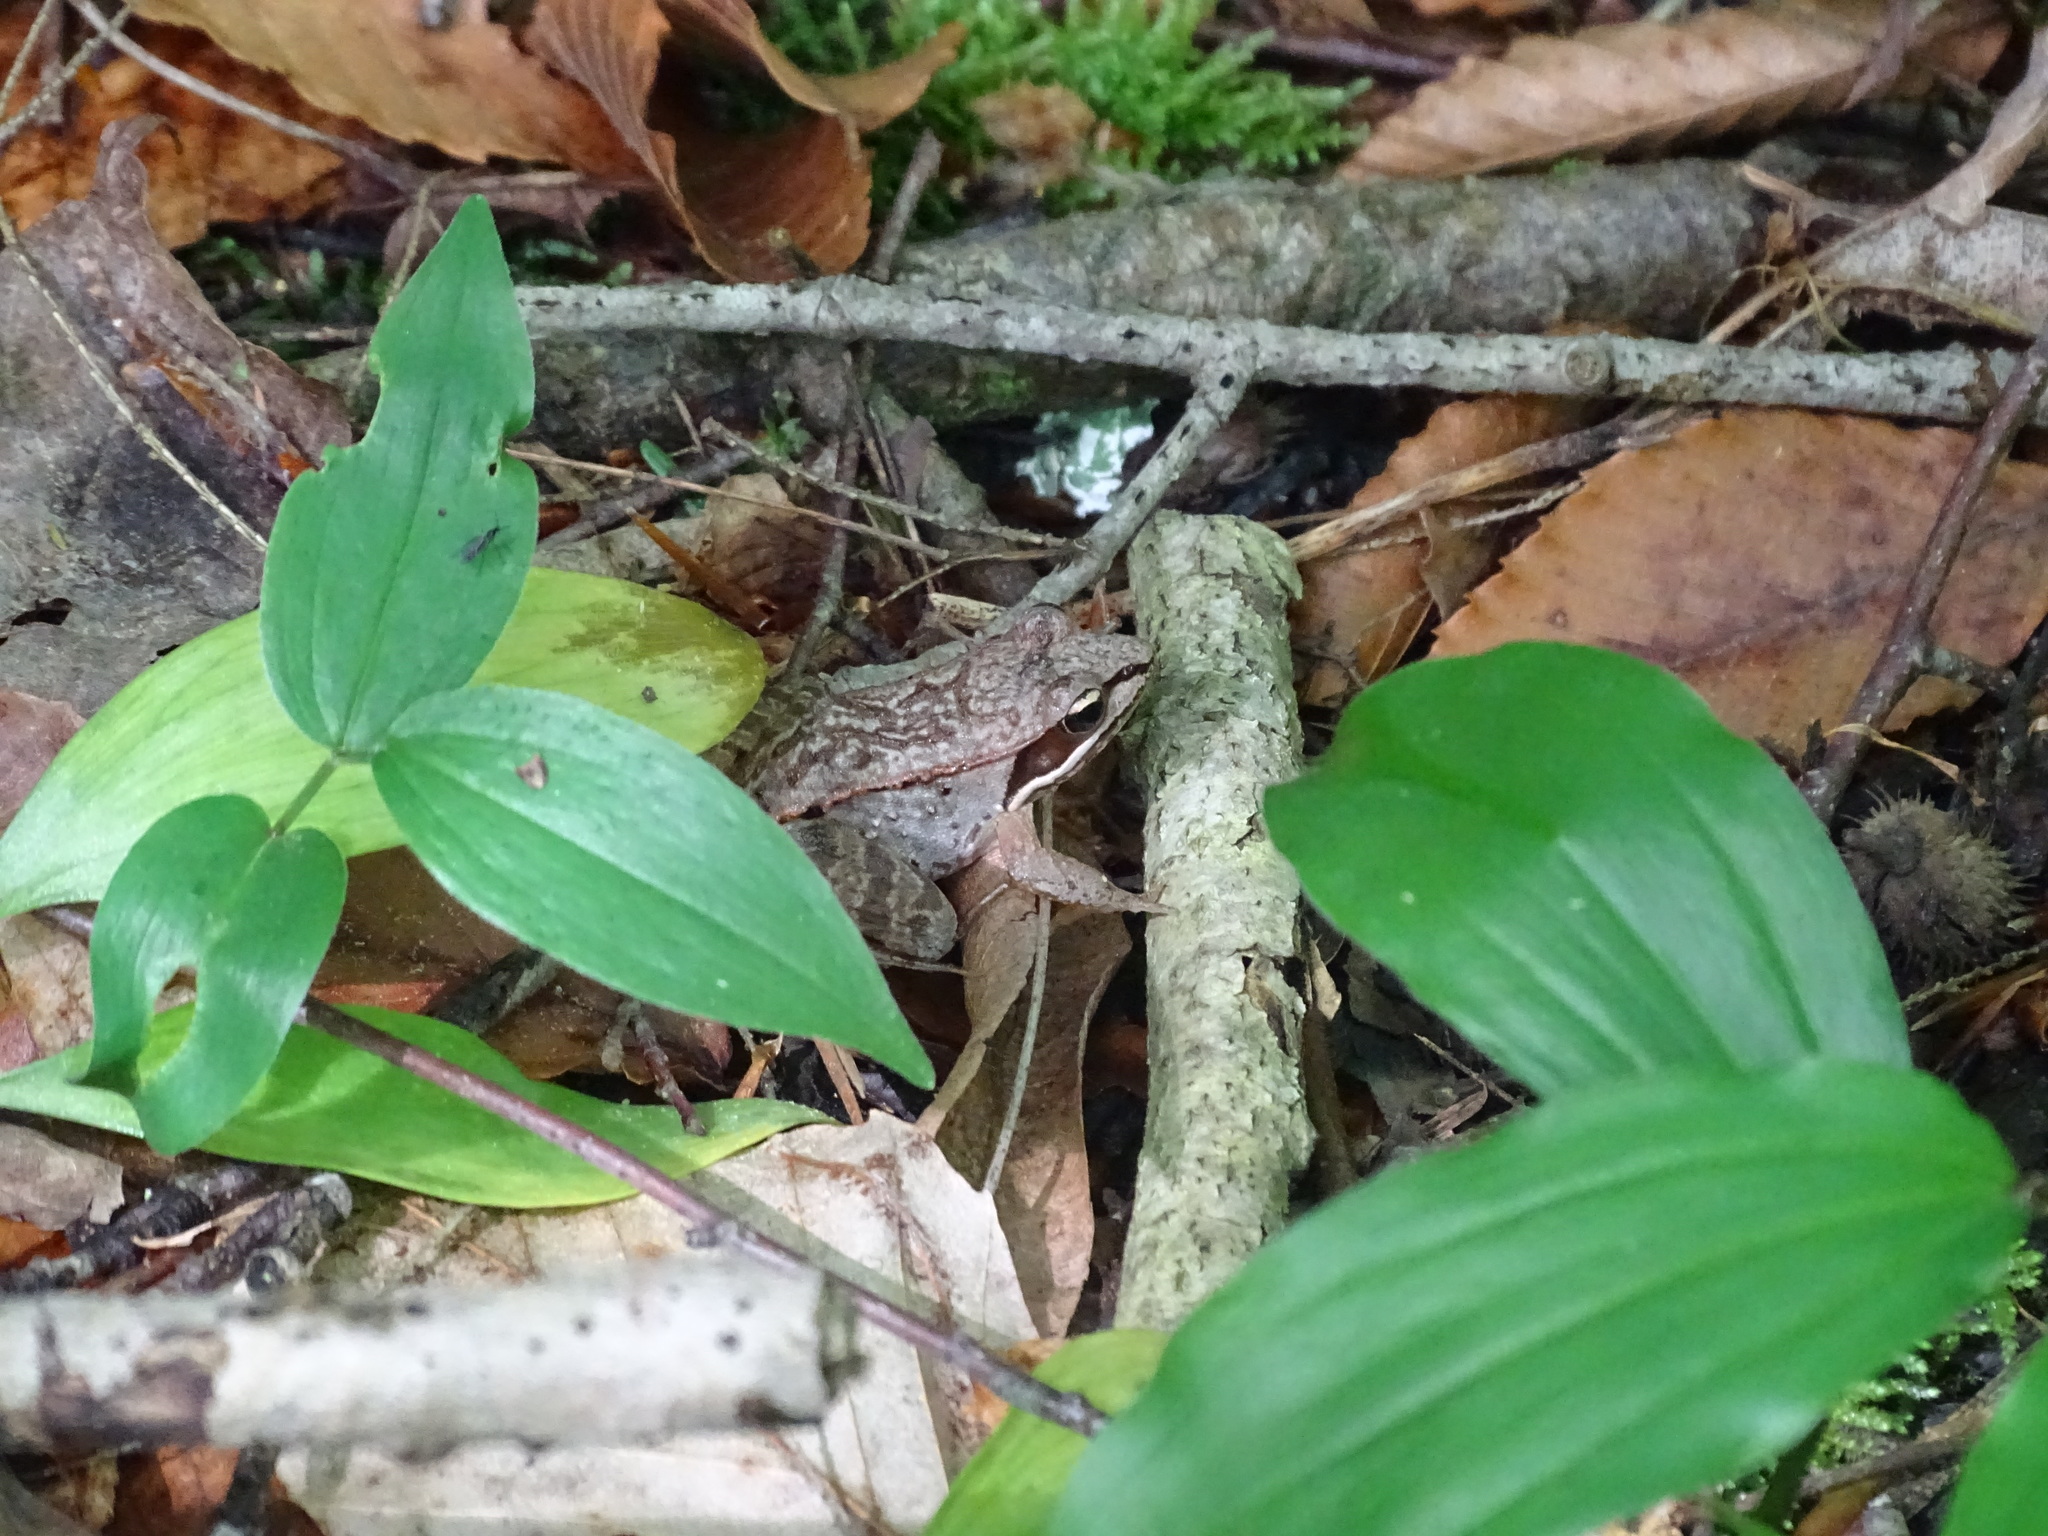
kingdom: Animalia
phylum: Chordata
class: Amphibia
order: Anura
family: Ranidae
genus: Lithobates
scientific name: Lithobates sylvaticus
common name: Wood frog
